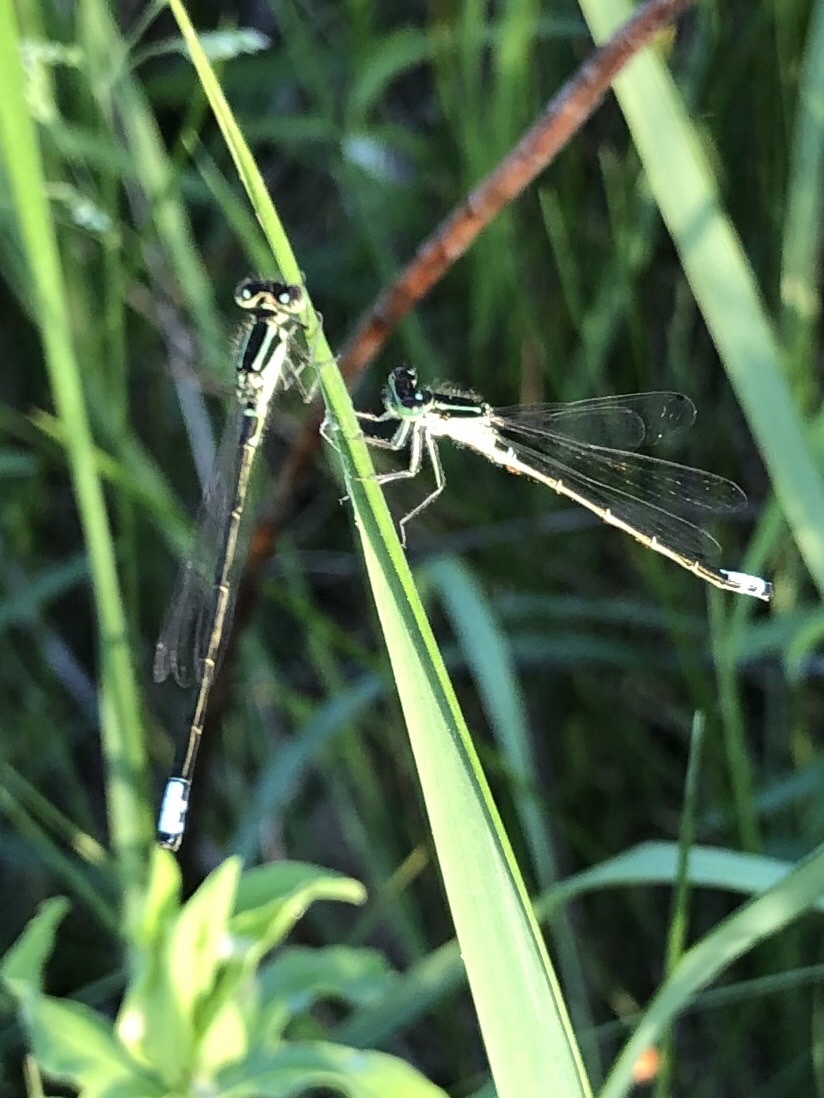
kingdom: Animalia
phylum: Arthropoda
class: Insecta
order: Odonata
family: Coenagrionidae
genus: Ischnura
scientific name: Ischnura verticalis
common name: Eastern forktail
